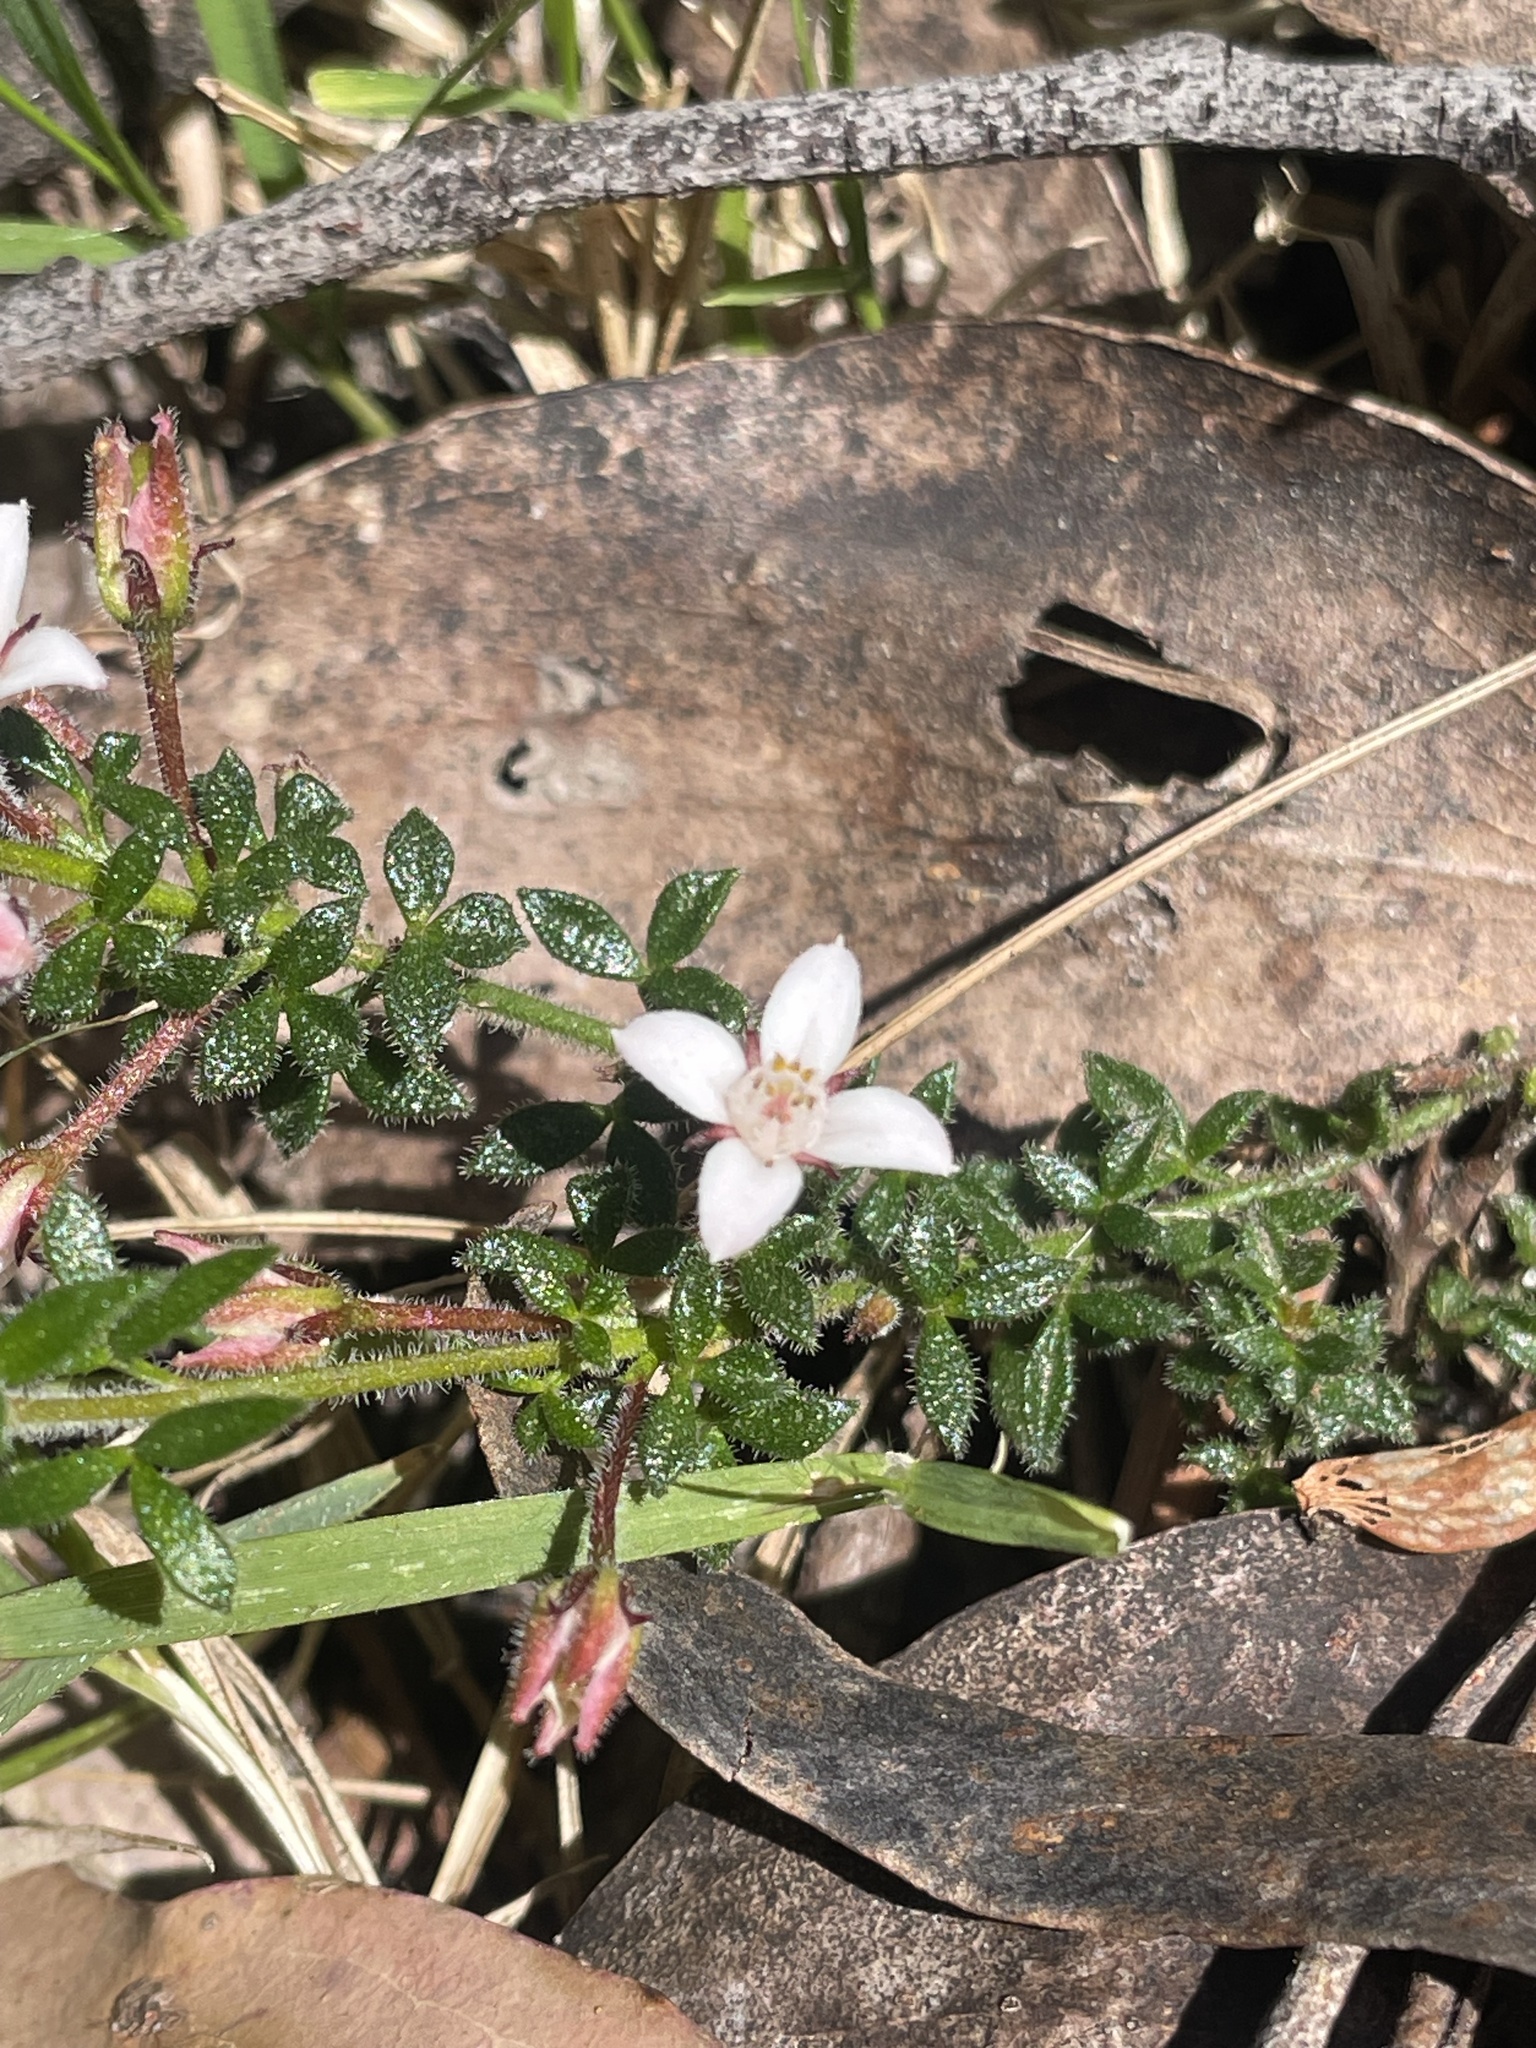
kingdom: Plantae
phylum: Tracheophyta
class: Magnoliopsida
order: Sapindales
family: Rutaceae
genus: Cyanothamnus
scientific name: Cyanothamnus nanus
